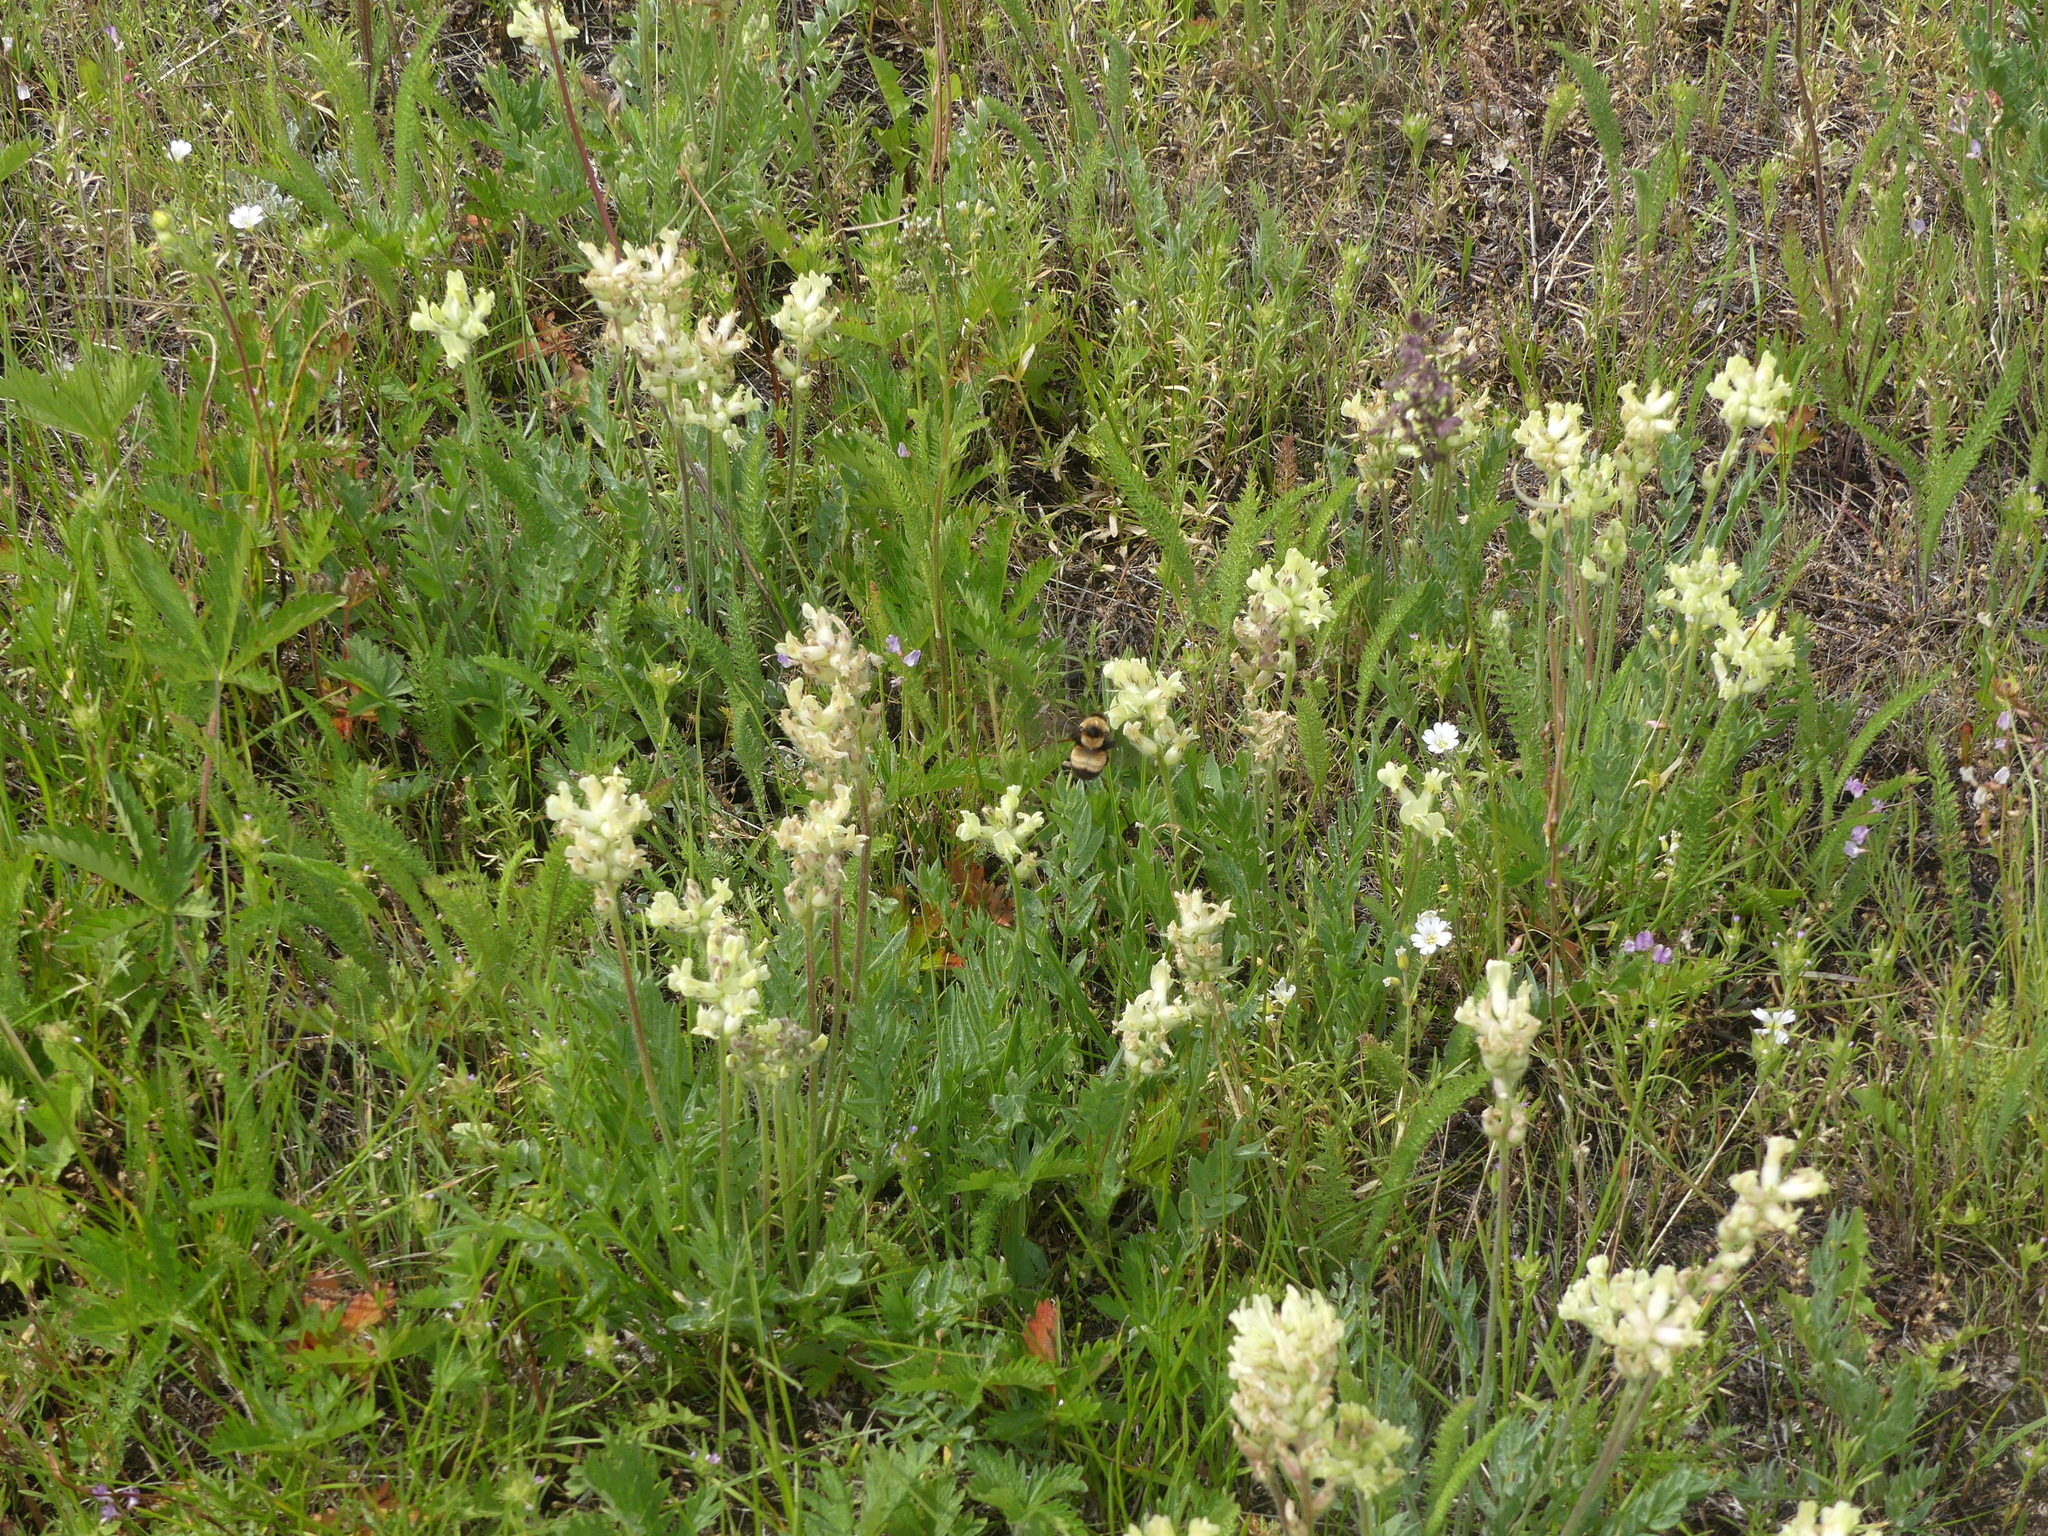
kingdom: Animalia
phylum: Arthropoda
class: Insecta
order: Hymenoptera
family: Apidae
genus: Bombus
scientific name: Bombus nevadensis
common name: Nevada bumble bee
